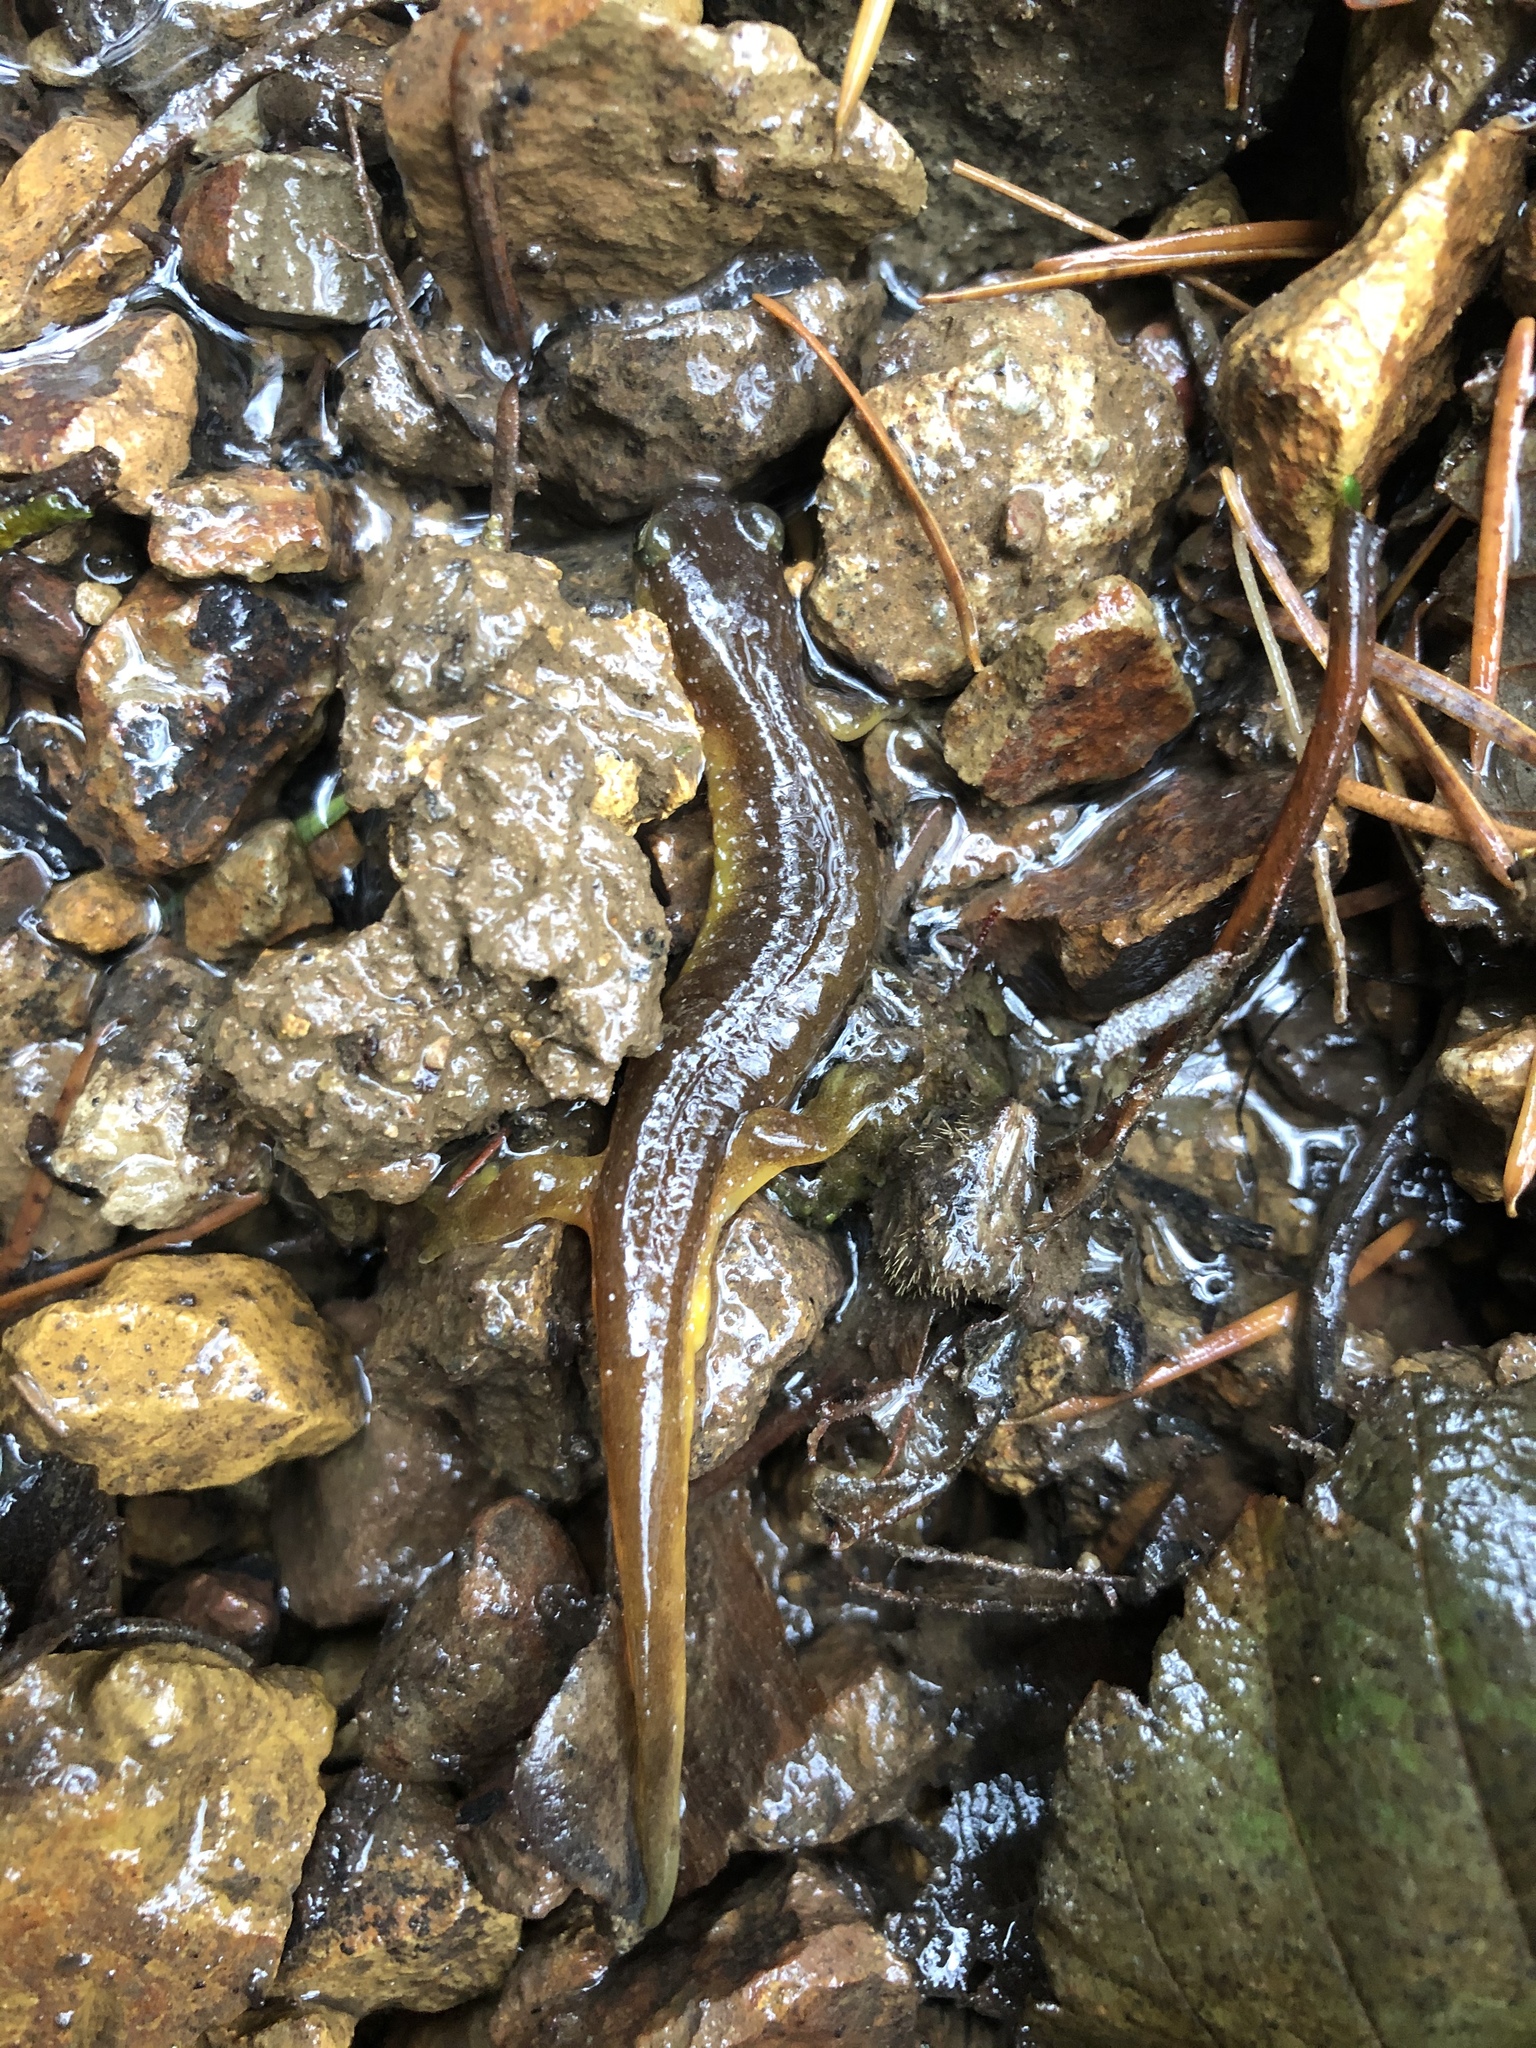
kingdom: Animalia
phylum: Chordata
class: Amphibia
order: Caudata
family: Rhyacotritonidae
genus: Rhyacotriton
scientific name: Rhyacotriton kezeri
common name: Columbia torrent salamander
